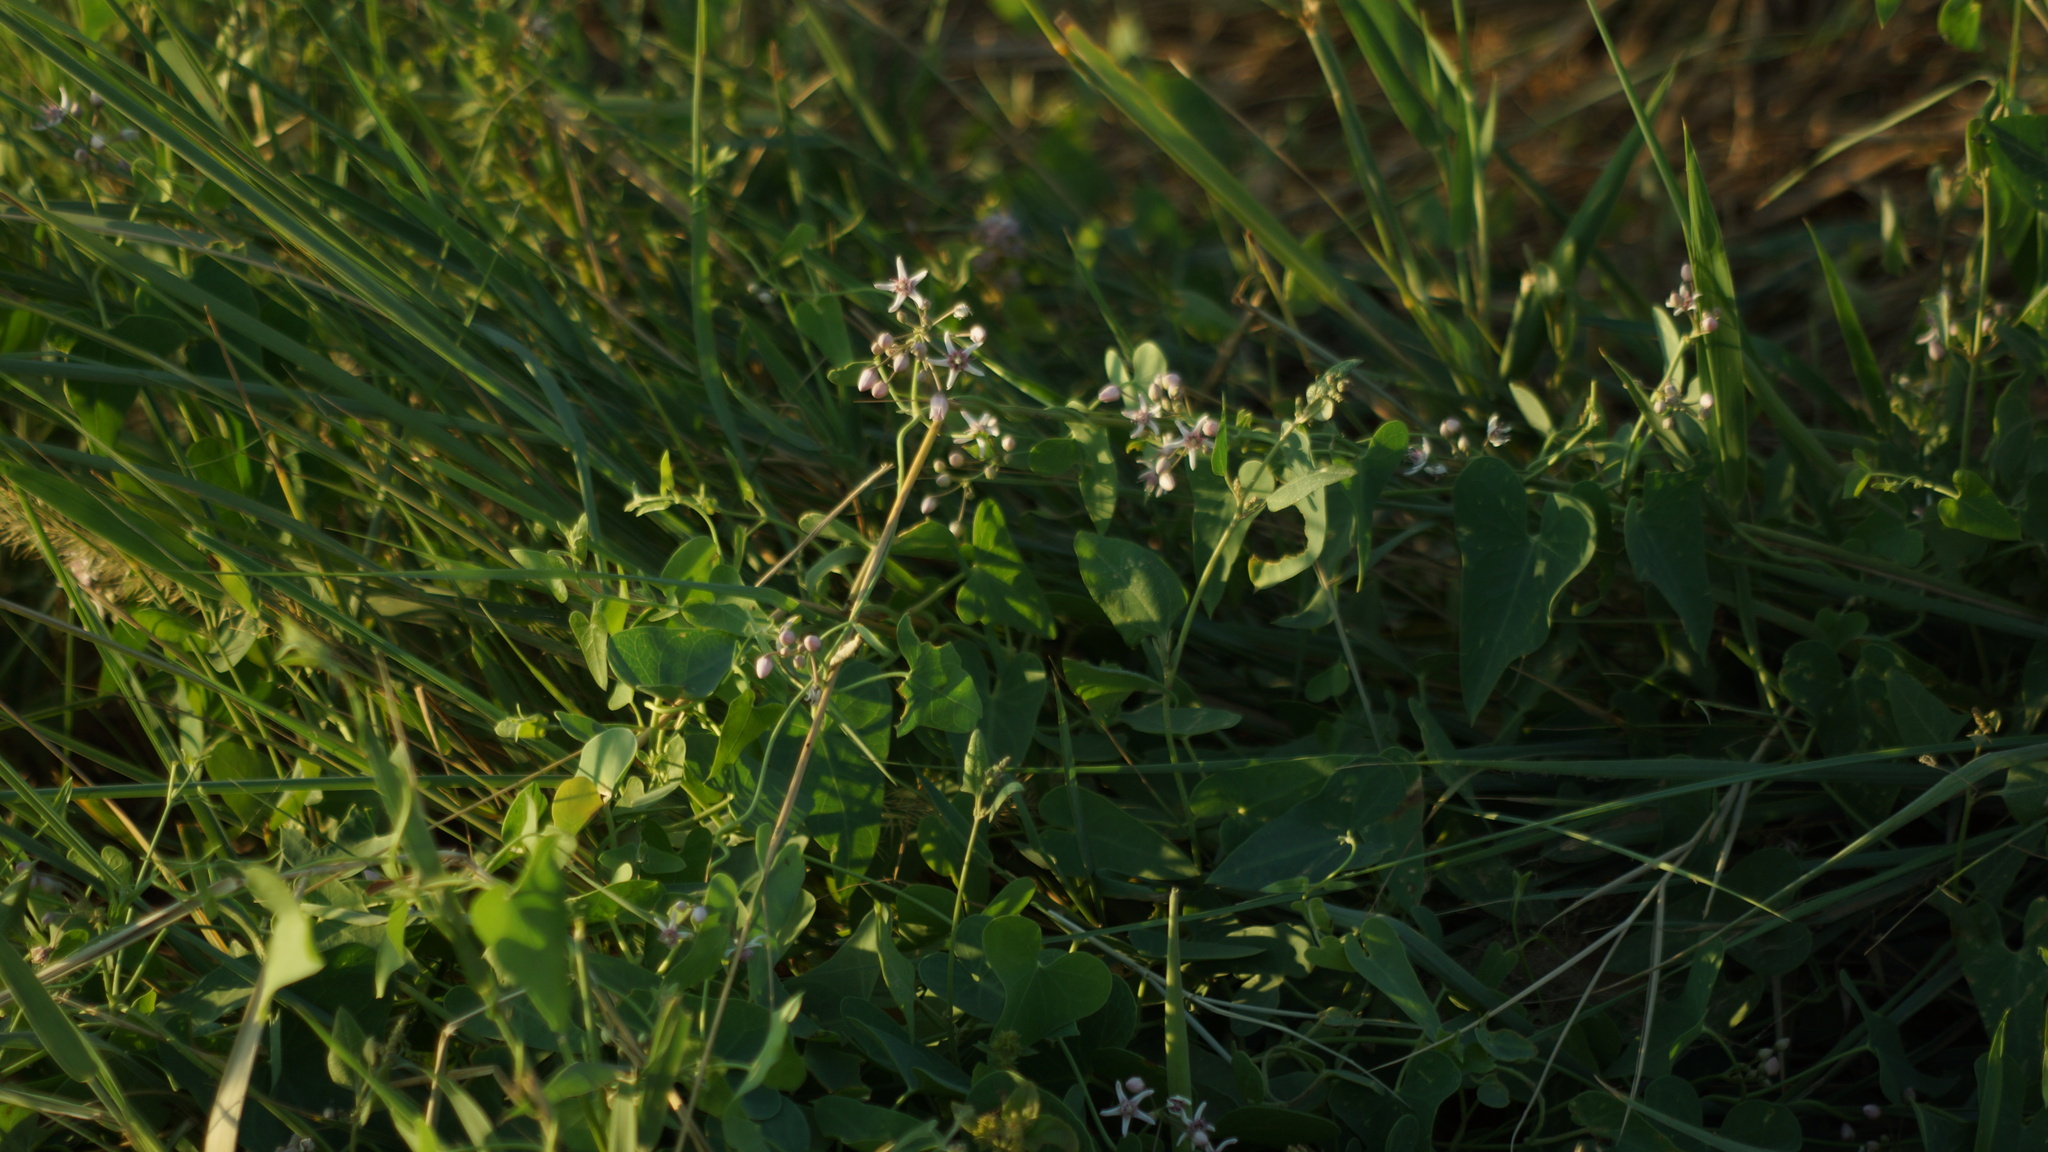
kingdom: Plantae
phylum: Tracheophyta
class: Magnoliopsida
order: Gentianales
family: Apocynaceae
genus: Cynanchum
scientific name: Cynanchum acutum
